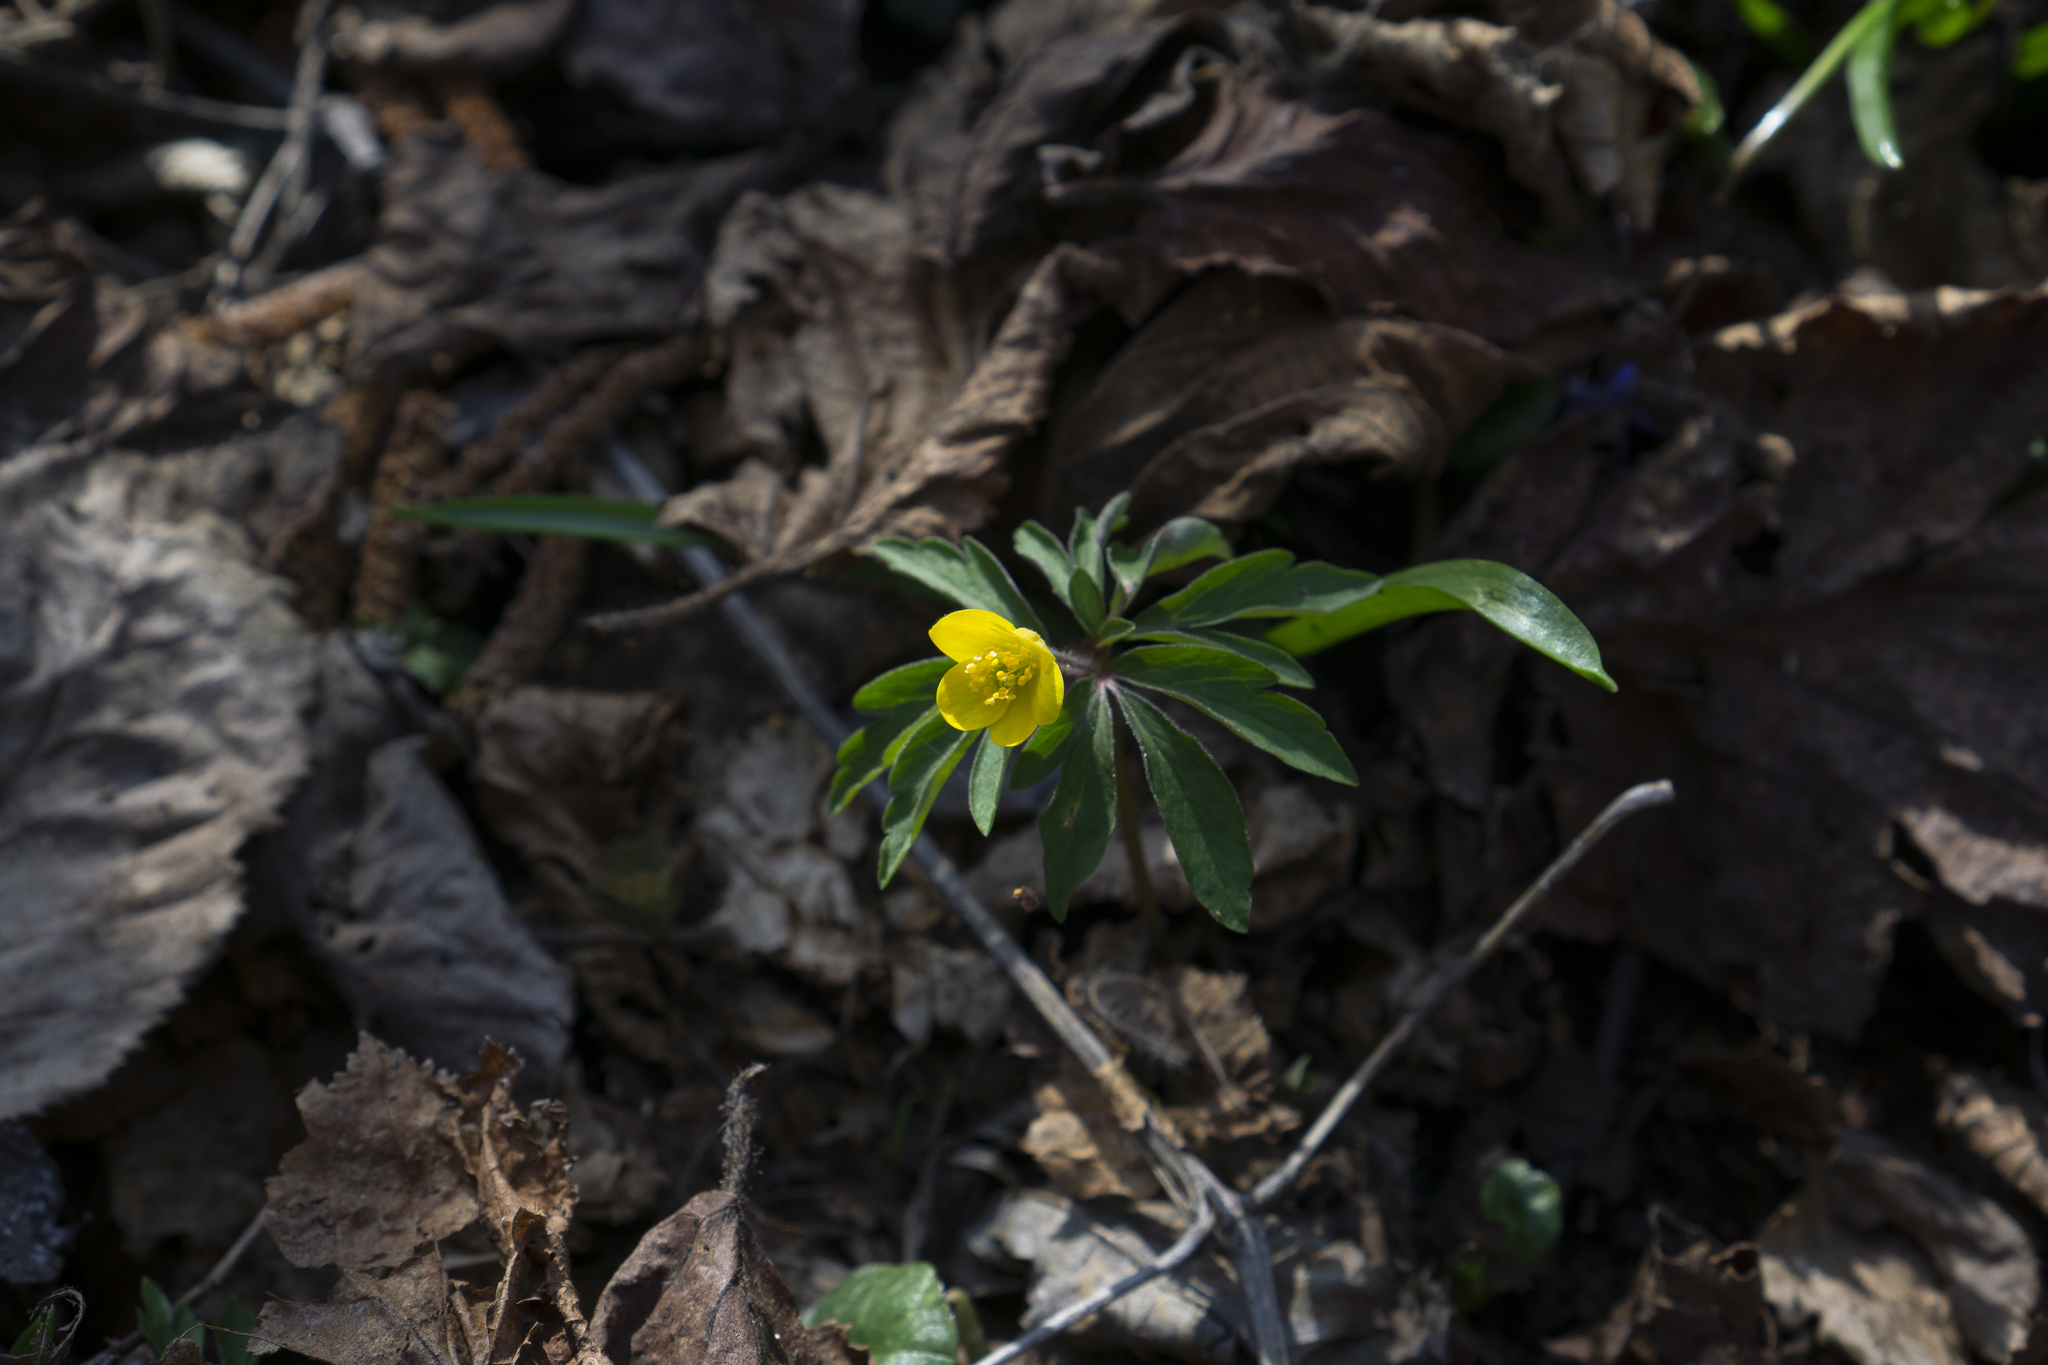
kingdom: Plantae
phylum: Tracheophyta
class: Magnoliopsida
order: Ranunculales
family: Ranunculaceae
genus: Anemone
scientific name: Anemone ranunculoides
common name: Yellow anemone
